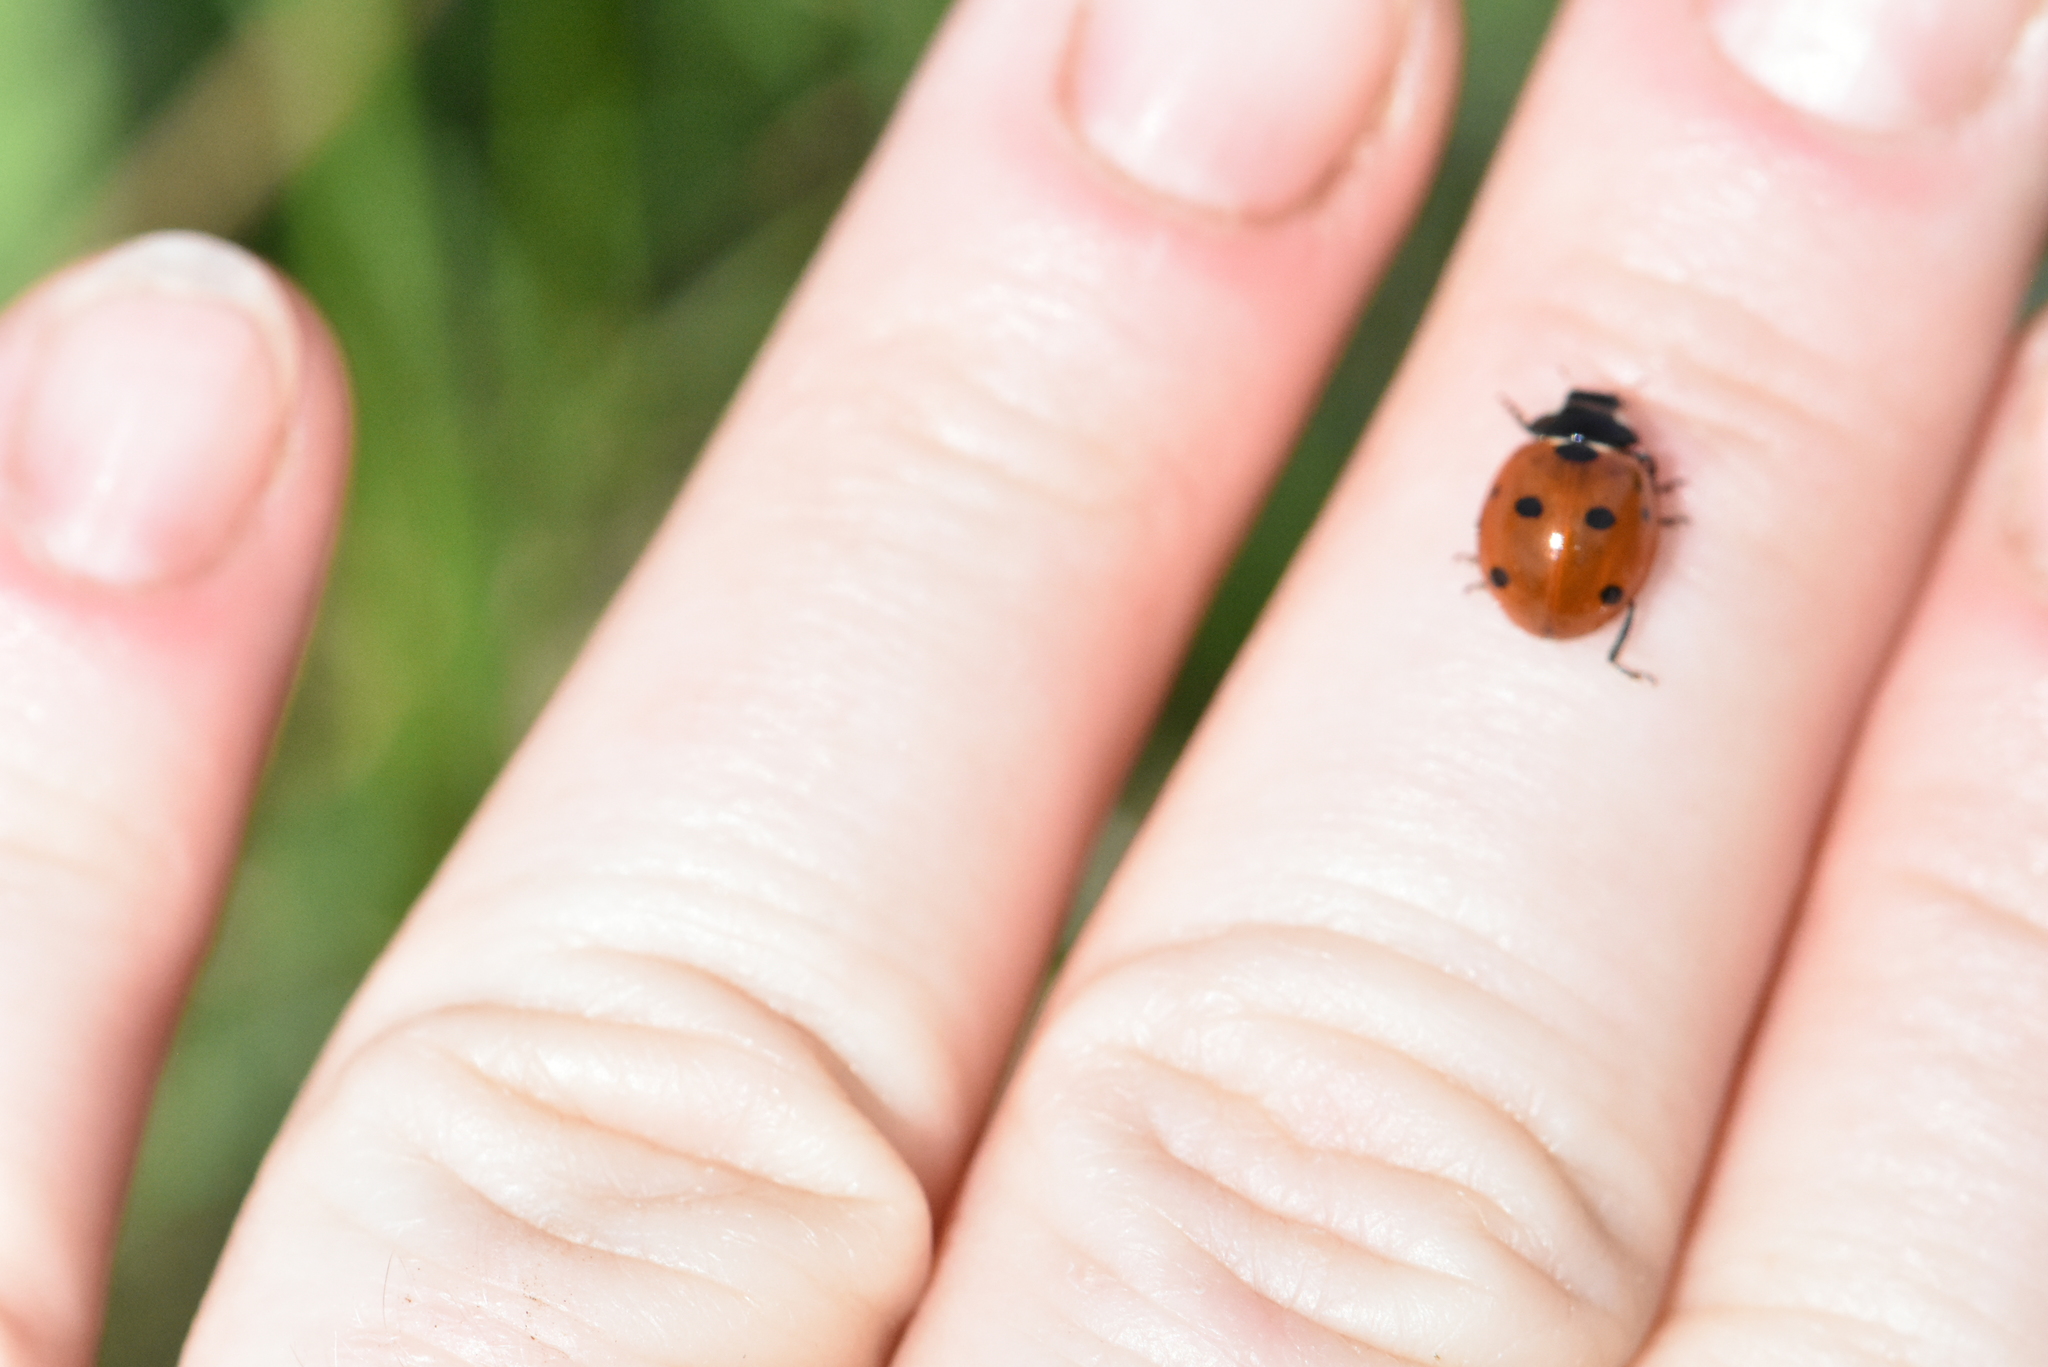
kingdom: Animalia
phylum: Arthropoda
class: Insecta
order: Coleoptera
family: Coccinellidae
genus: Coccinella
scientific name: Coccinella septempunctata
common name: Sevenspotted lady beetle
